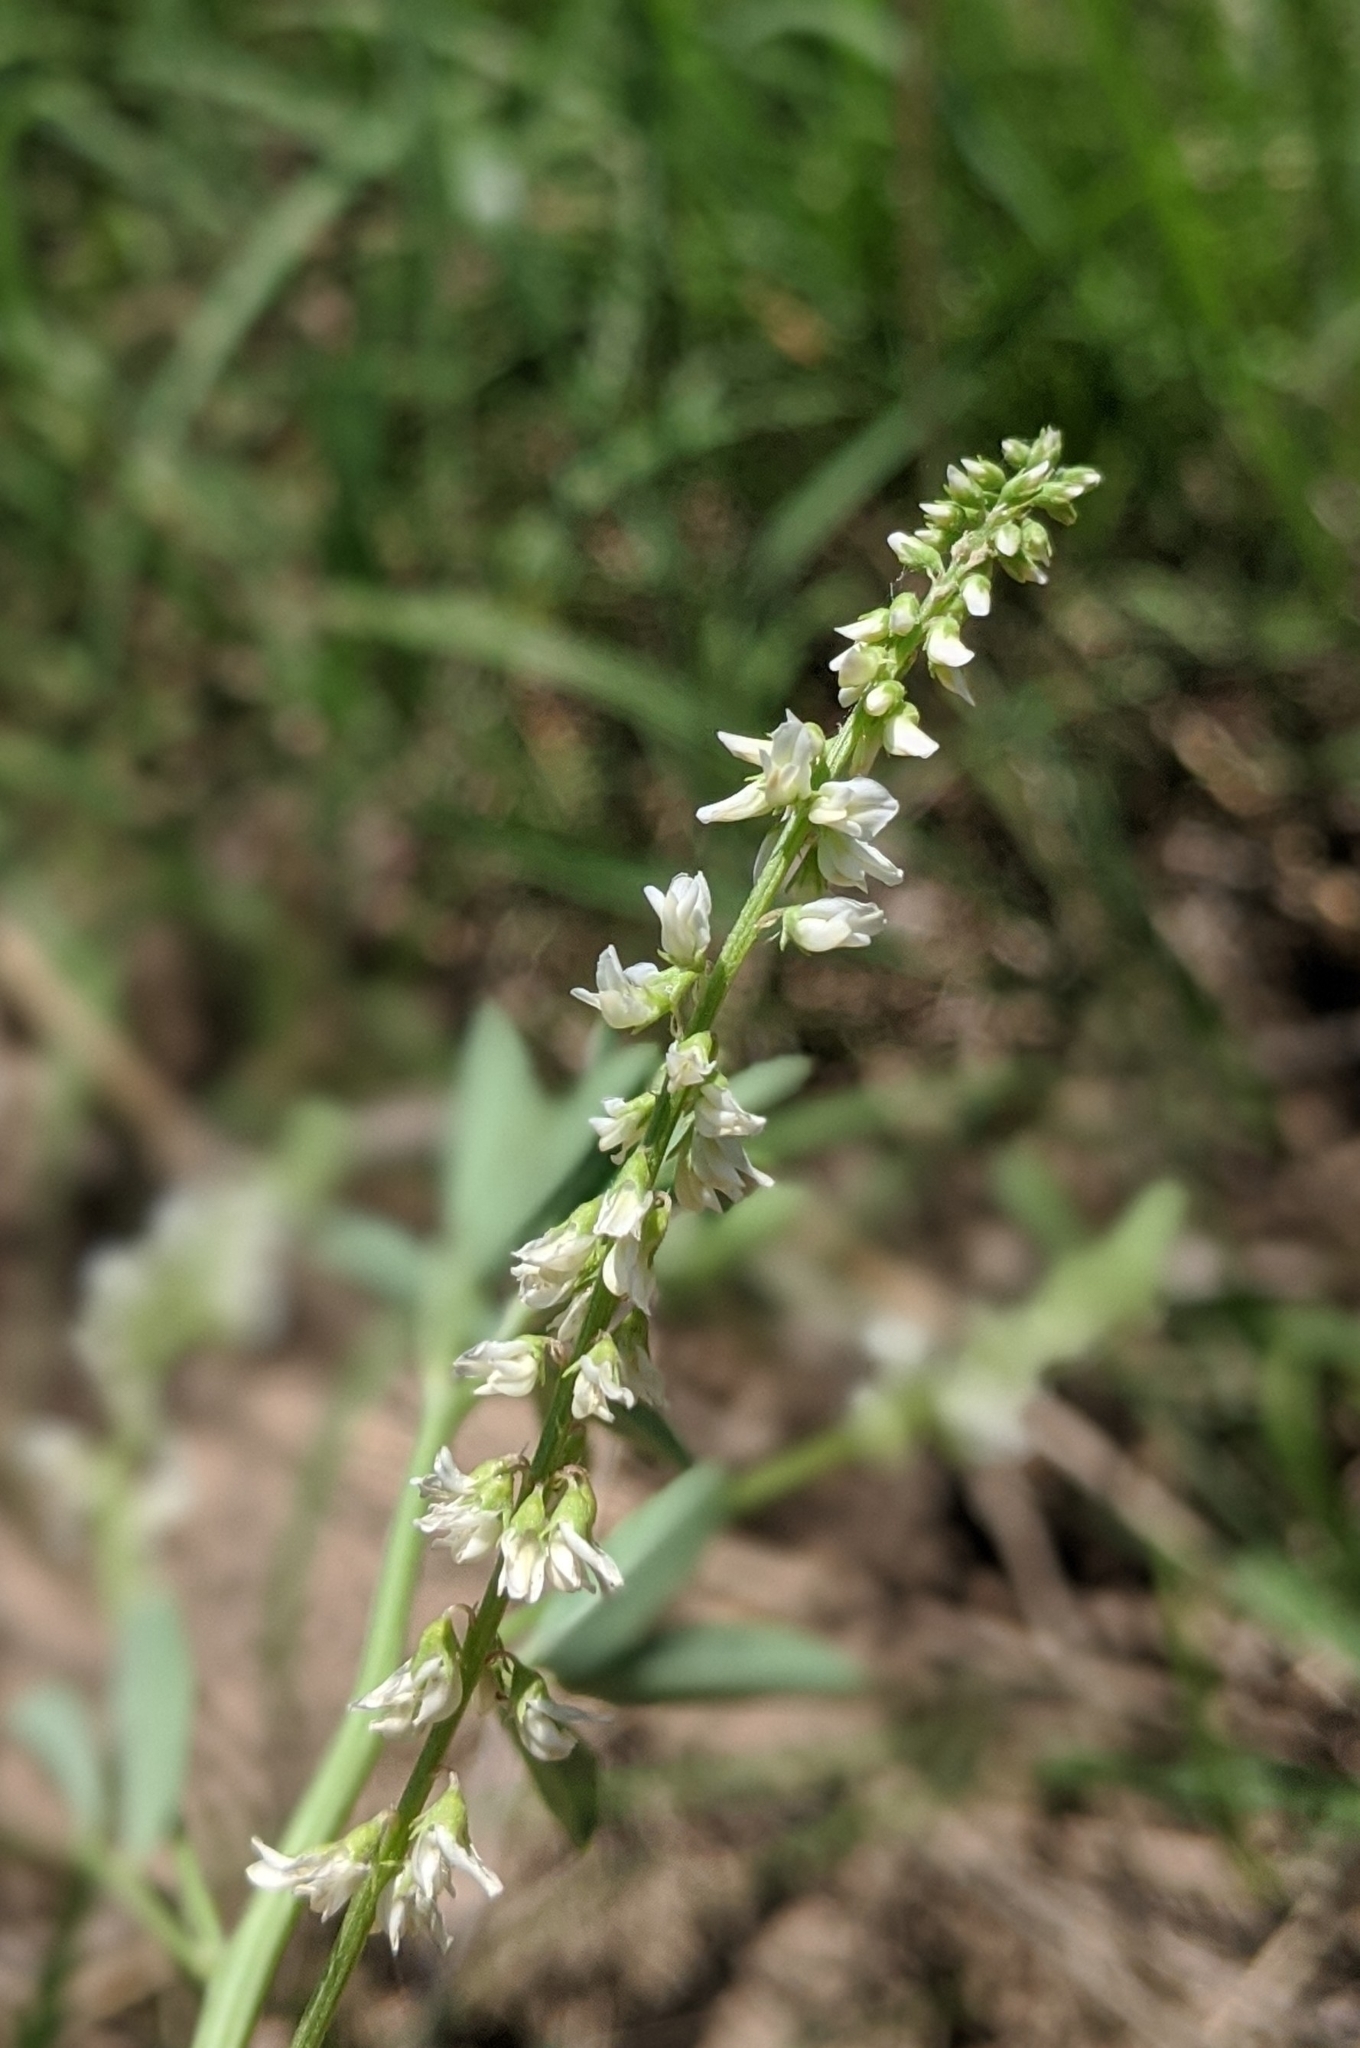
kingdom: Plantae
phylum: Tracheophyta
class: Magnoliopsida
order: Fabales
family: Fabaceae
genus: Melilotus
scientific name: Melilotus albus
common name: White melilot
